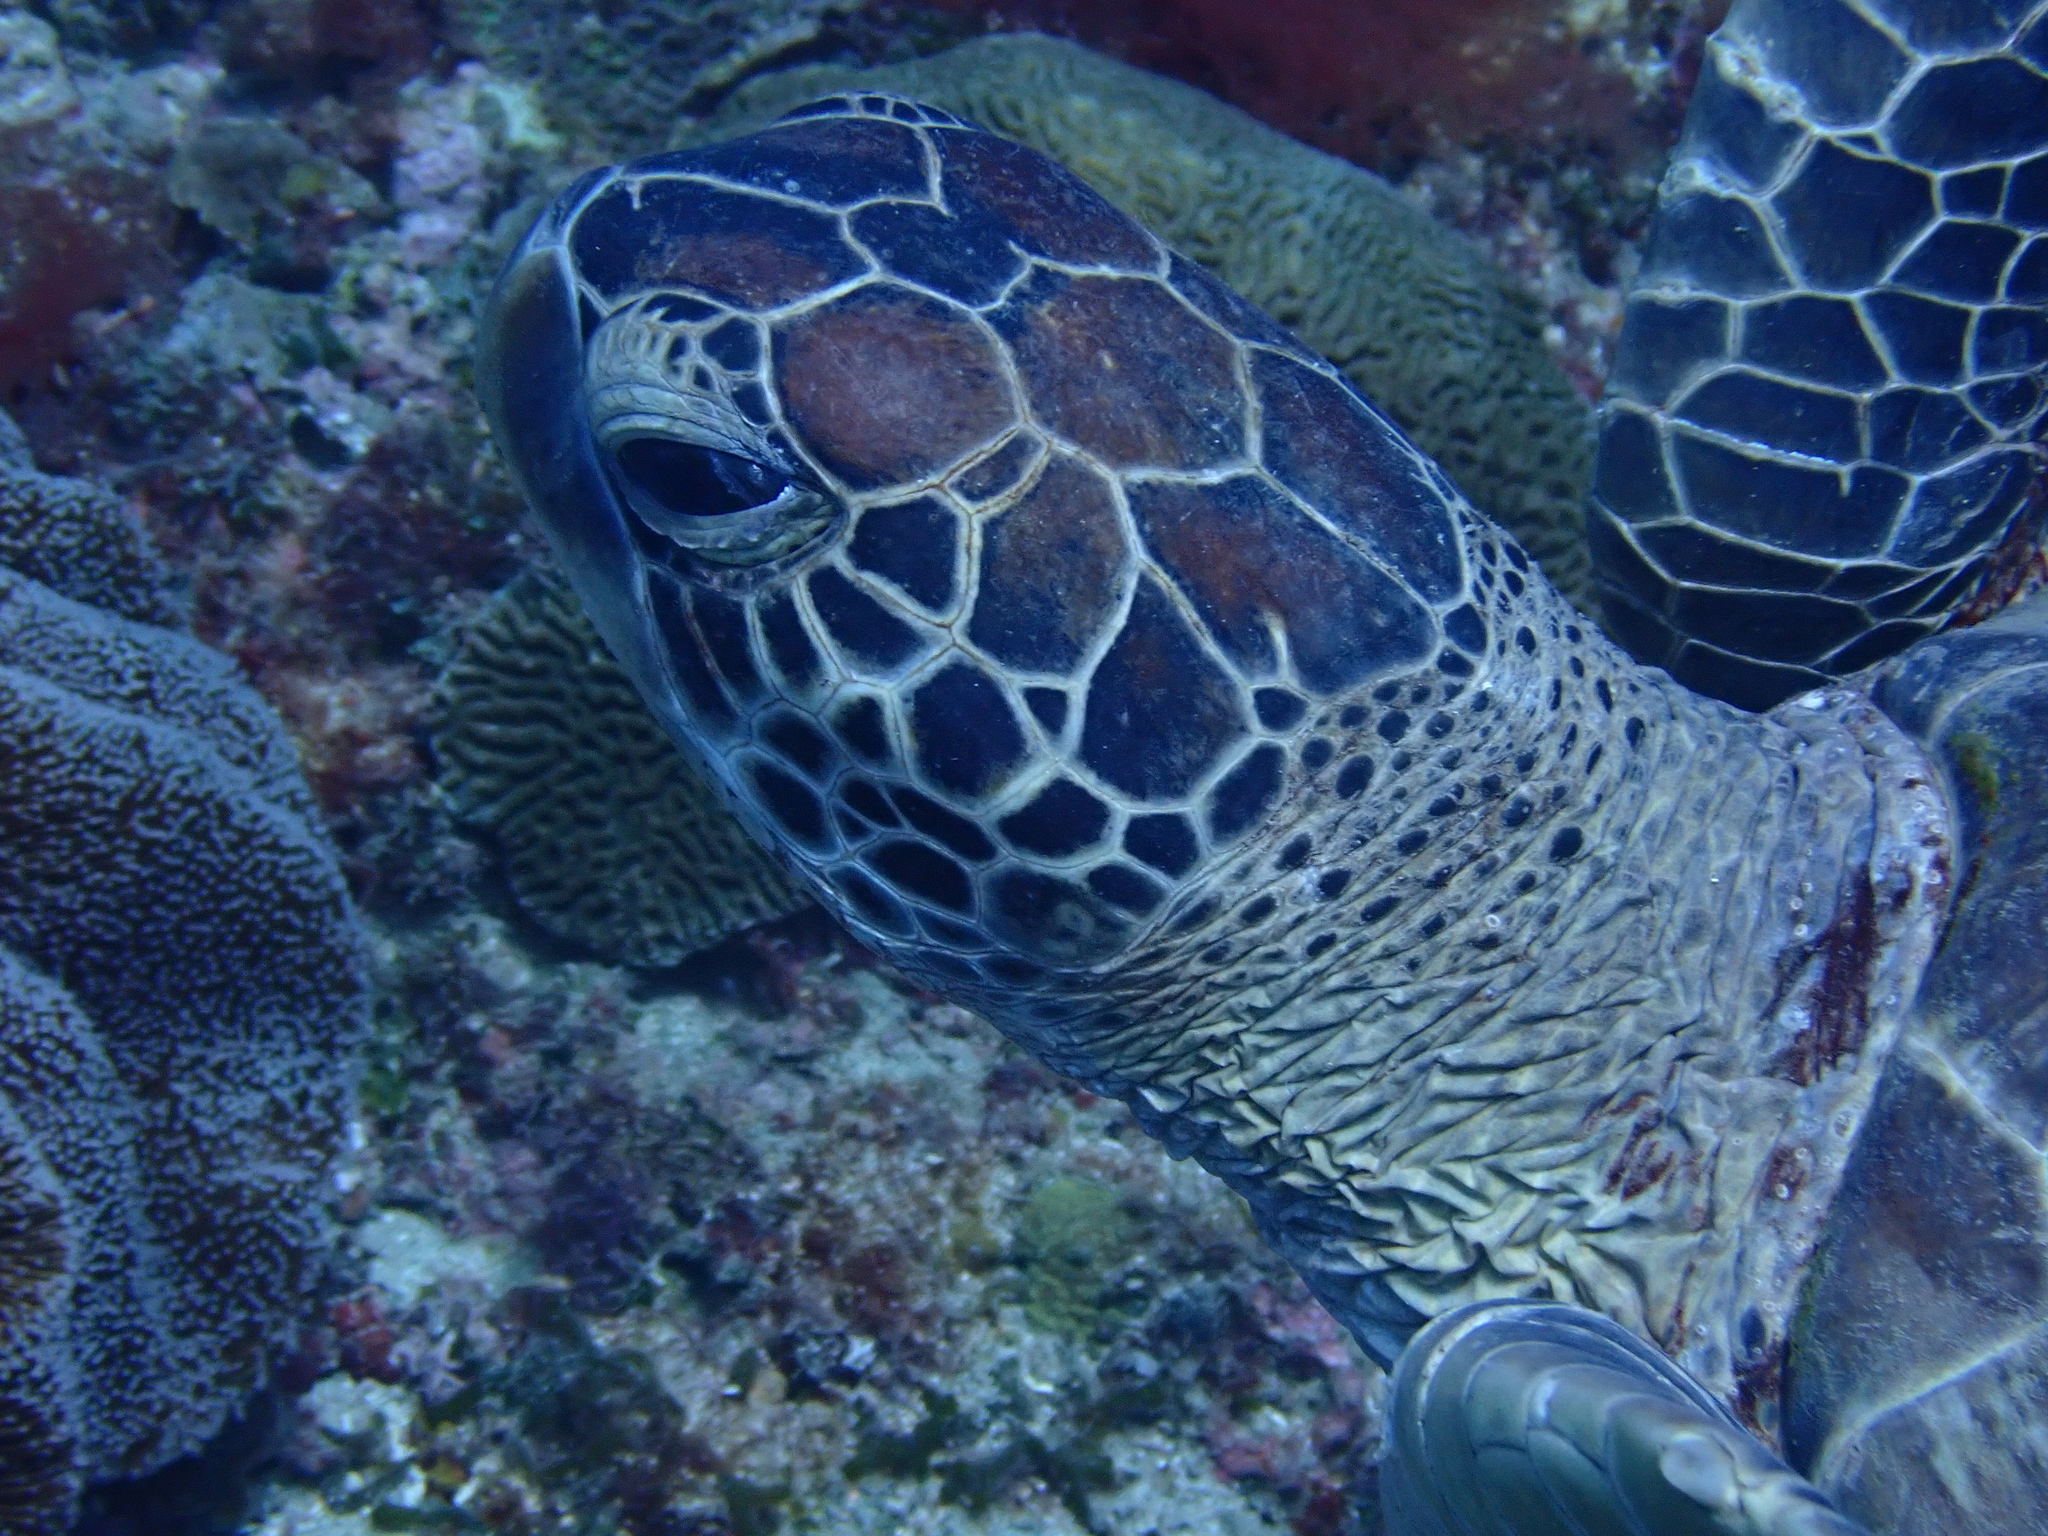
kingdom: Animalia
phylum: Chordata
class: Testudines
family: Cheloniidae
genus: Chelonia
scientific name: Chelonia mydas
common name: Green turtle
